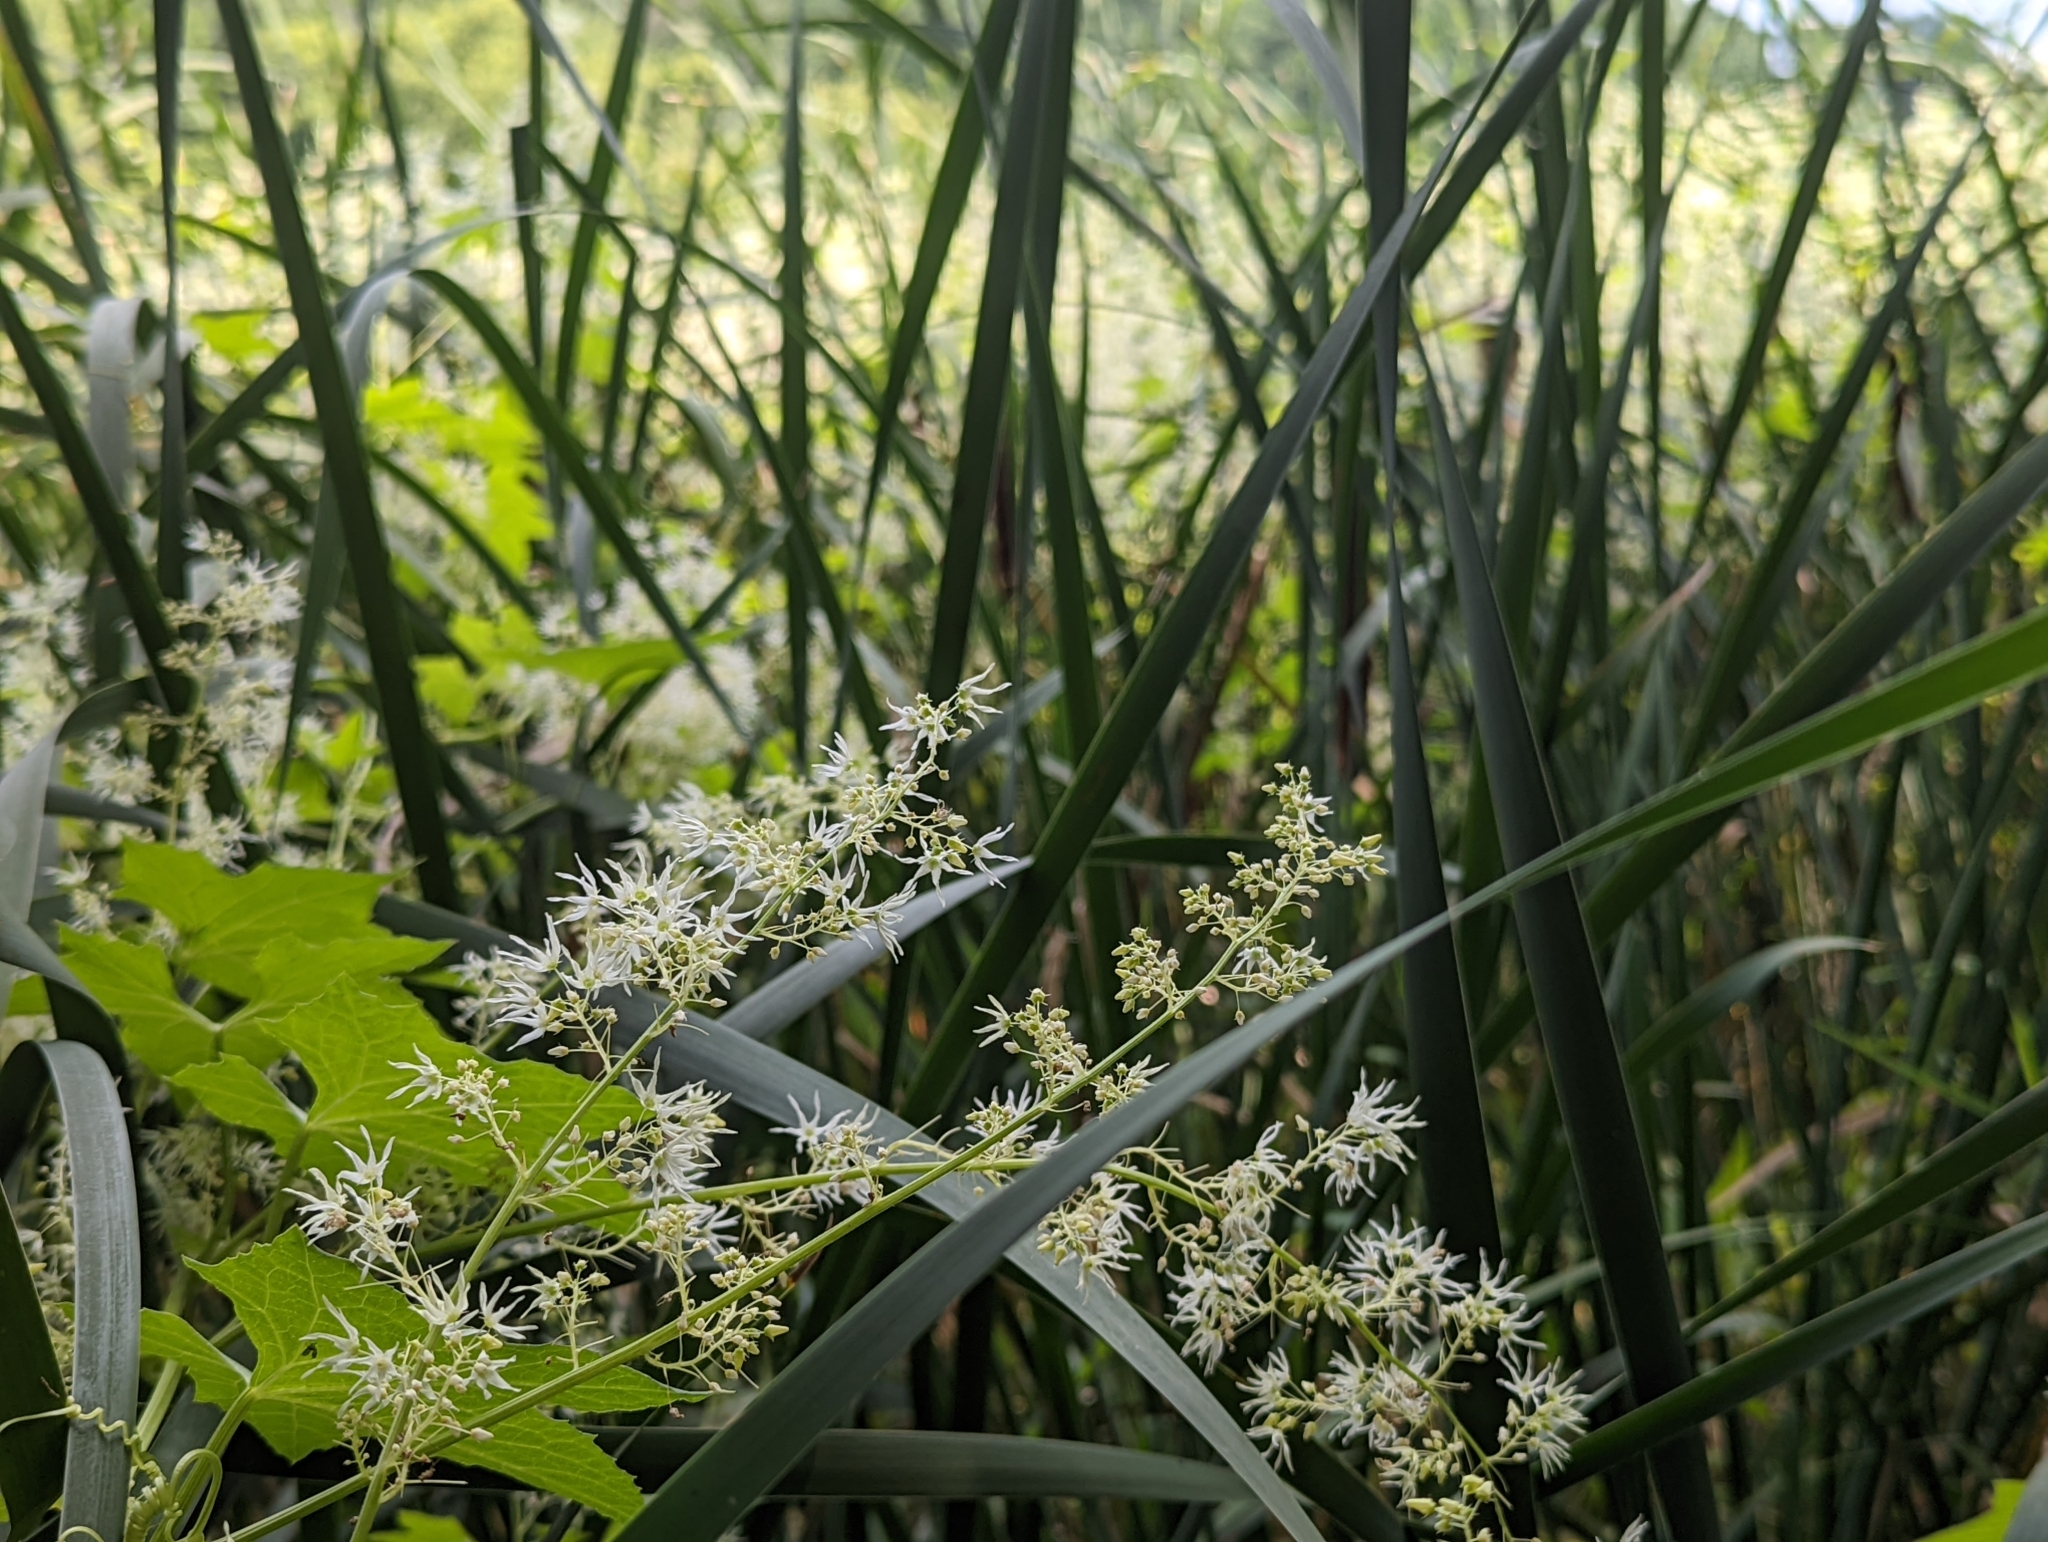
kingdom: Plantae
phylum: Tracheophyta
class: Magnoliopsida
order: Cucurbitales
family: Cucurbitaceae
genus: Echinocystis
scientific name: Echinocystis lobata
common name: Wild cucumber
